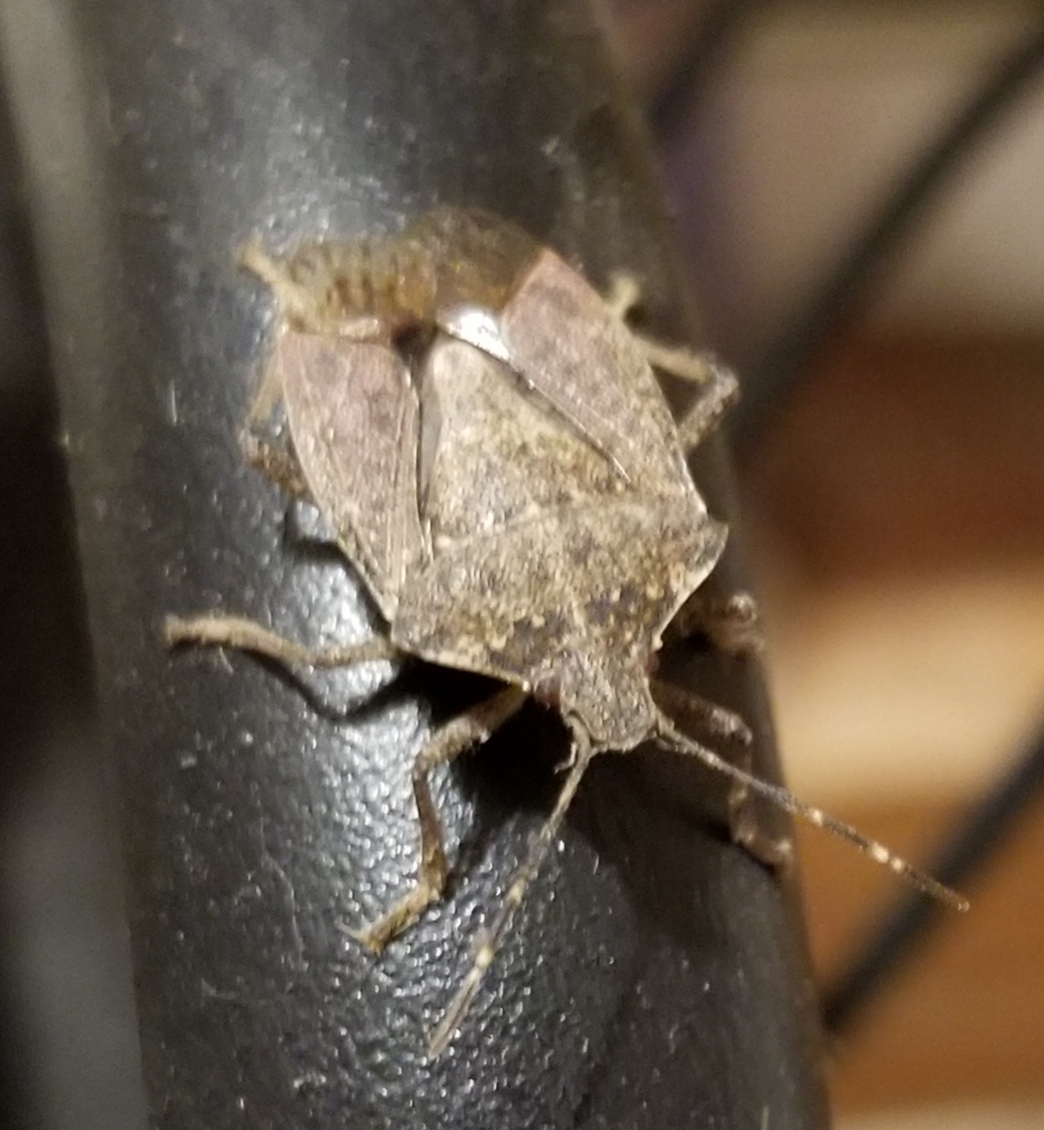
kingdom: Animalia
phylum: Arthropoda
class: Insecta
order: Hemiptera
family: Pentatomidae
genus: Halyomorpha
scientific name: Halyomorpha halys
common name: Brown marmorated stink bug
